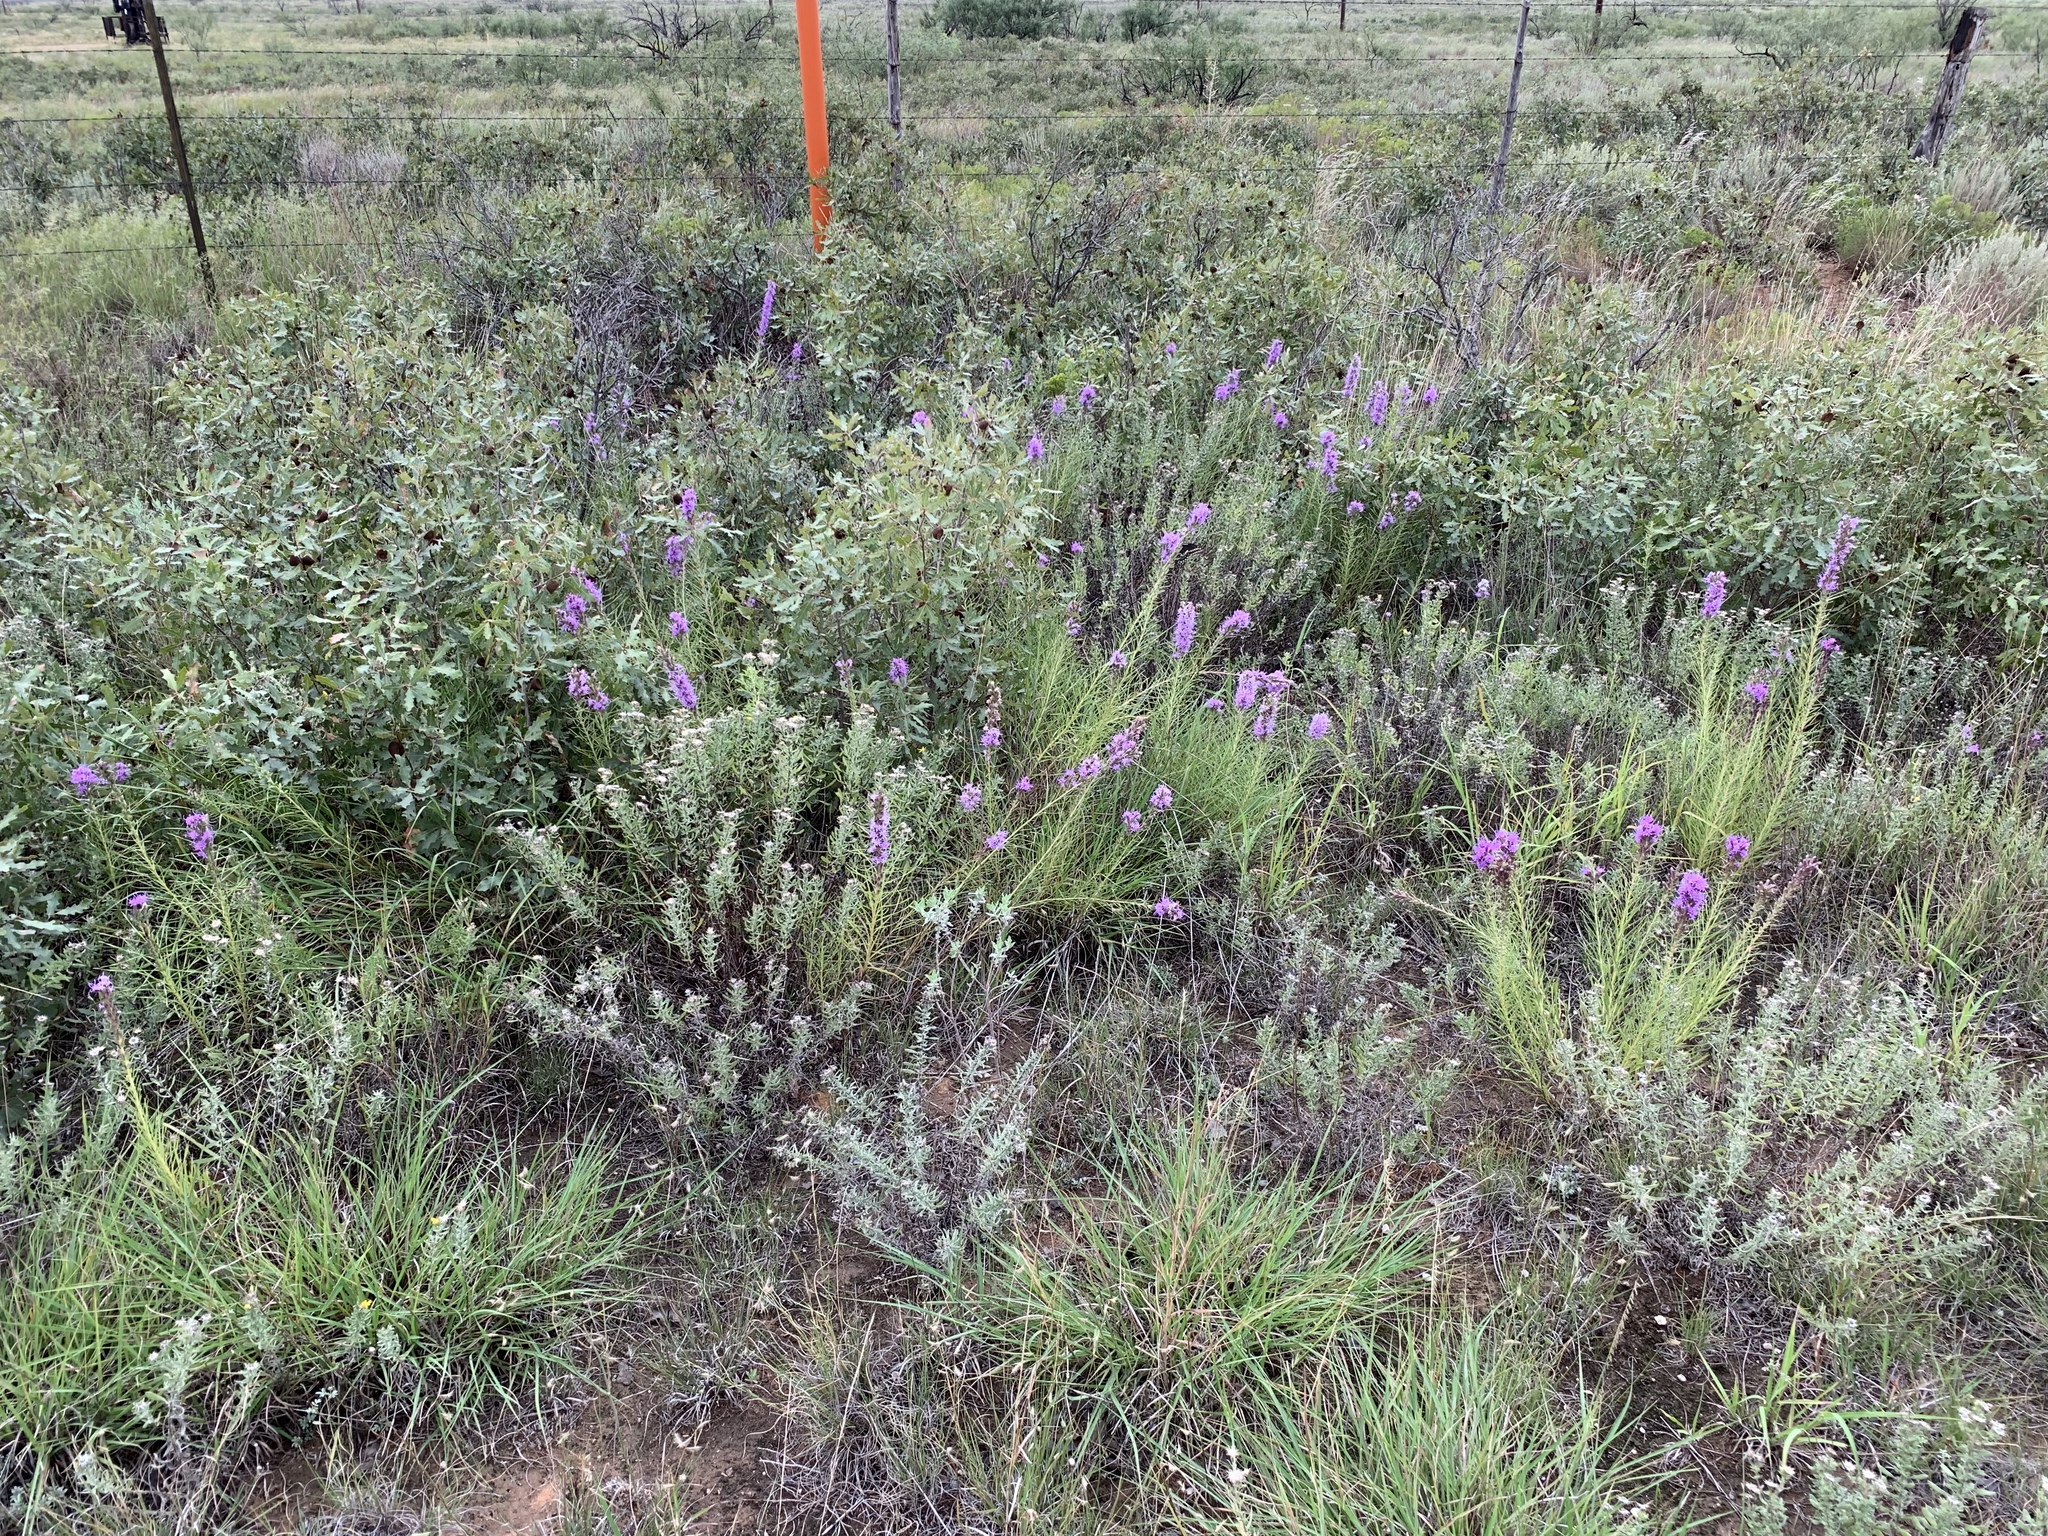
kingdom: Plantae
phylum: Tracheophyta
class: Magnoliopsida
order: Asterales
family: Asteraceae
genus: Liatris
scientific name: Liatris punctata
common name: Dotted gayfeather
